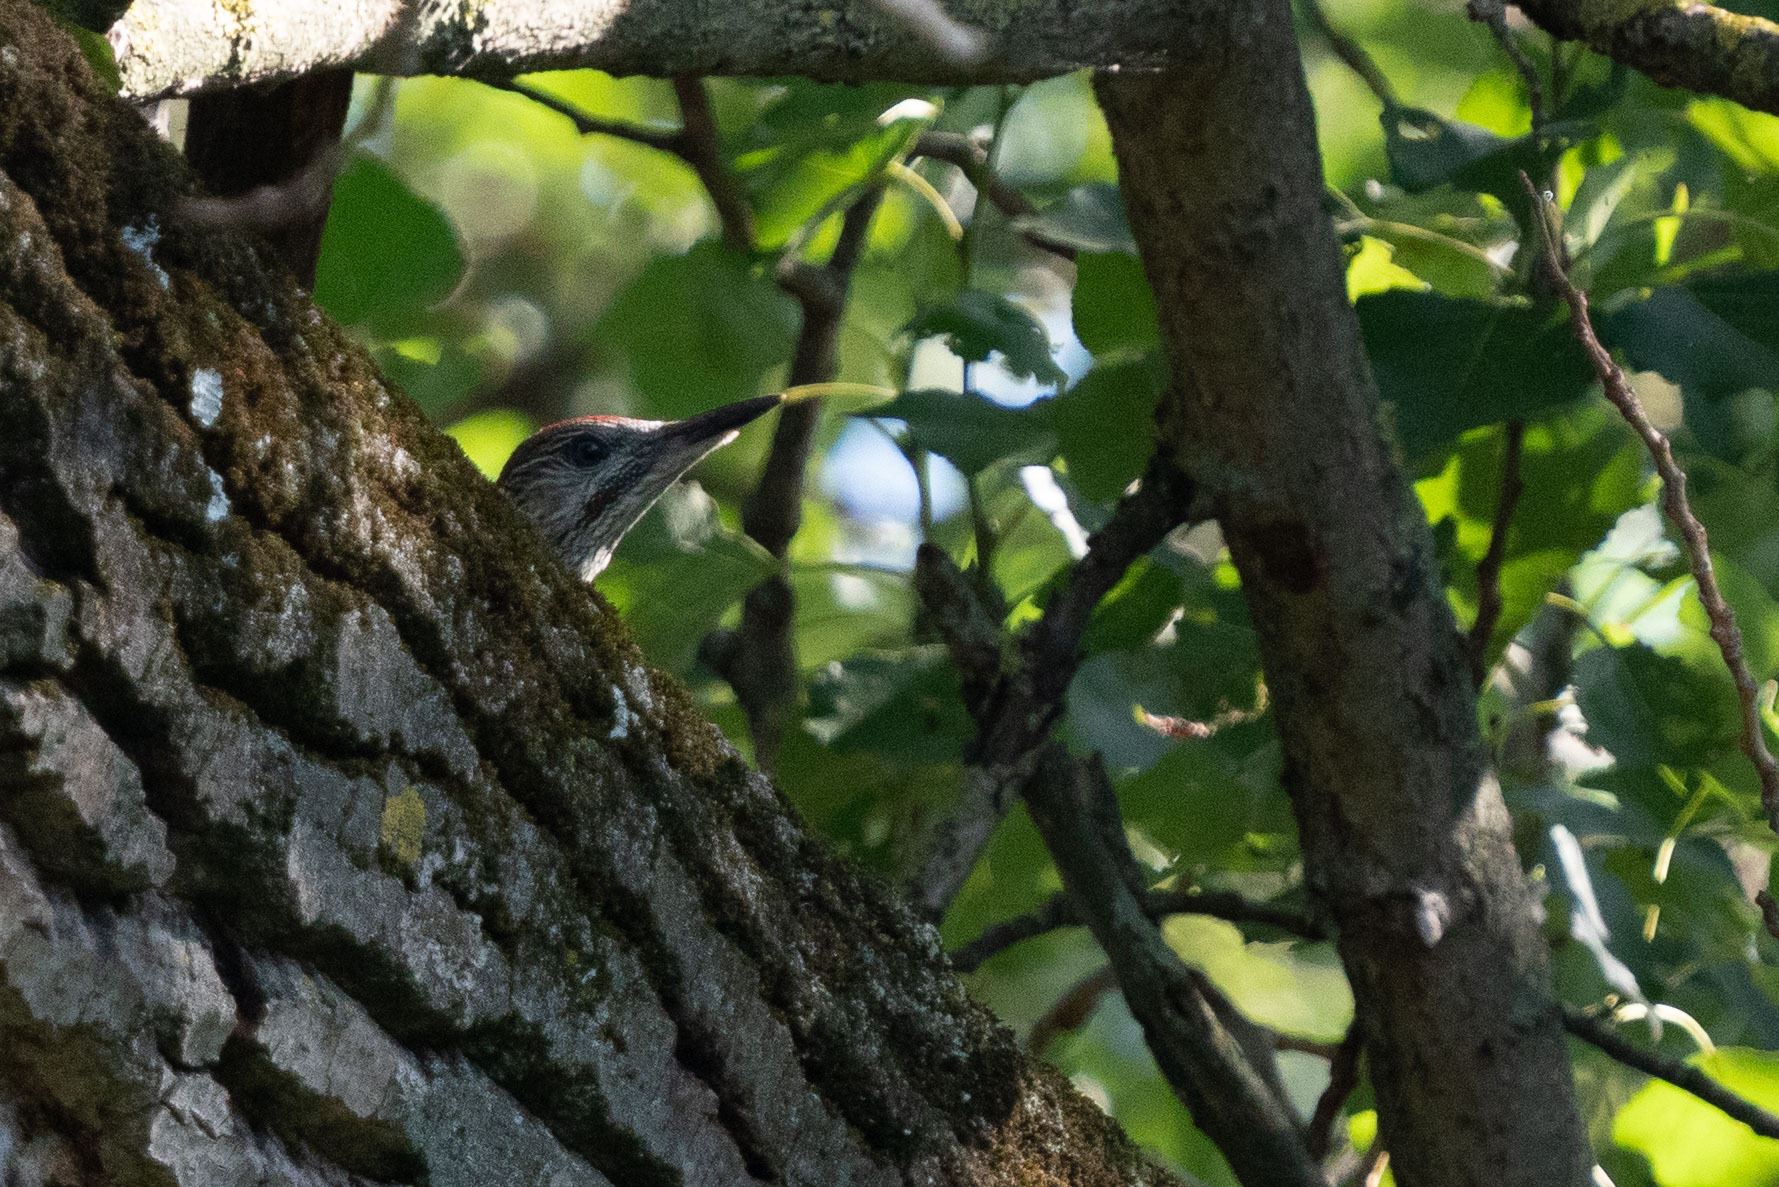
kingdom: Animalia
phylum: Chordata
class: Aves
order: Piciformes
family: Picidae
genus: Picus
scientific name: Picus viridis
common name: European green woodpecker
